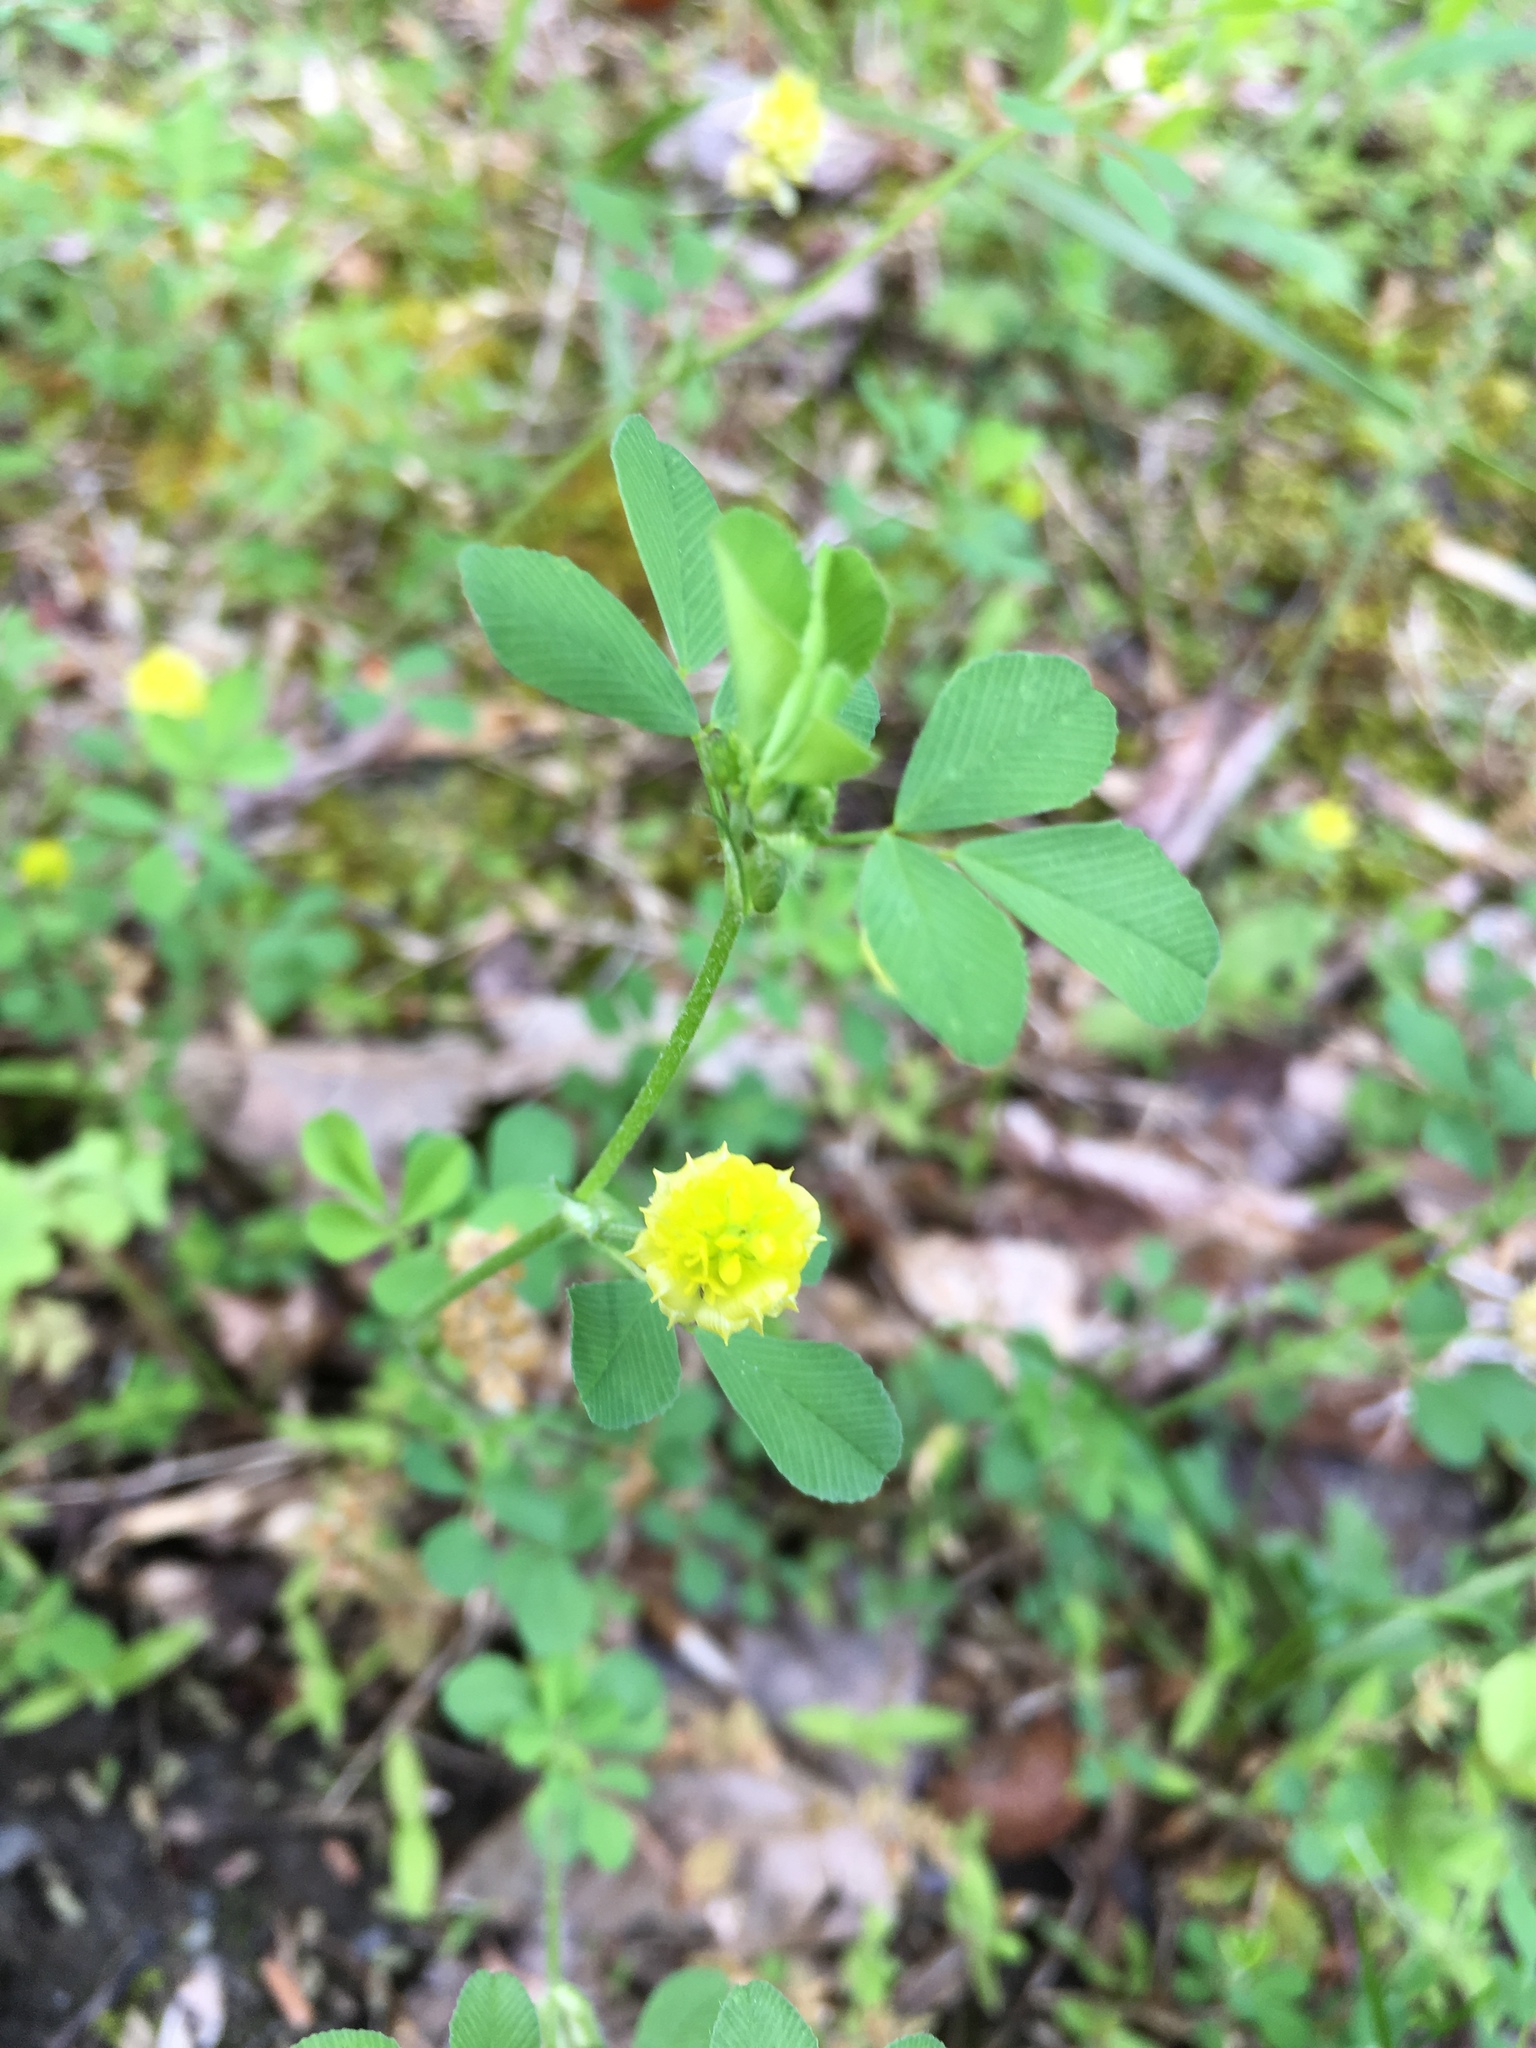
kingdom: Plantae
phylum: Tracheophyta
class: Magnoliopsida
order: Fabales
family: Fabaceae
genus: Trifolium
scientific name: Trifolium campestre
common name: Field clover
